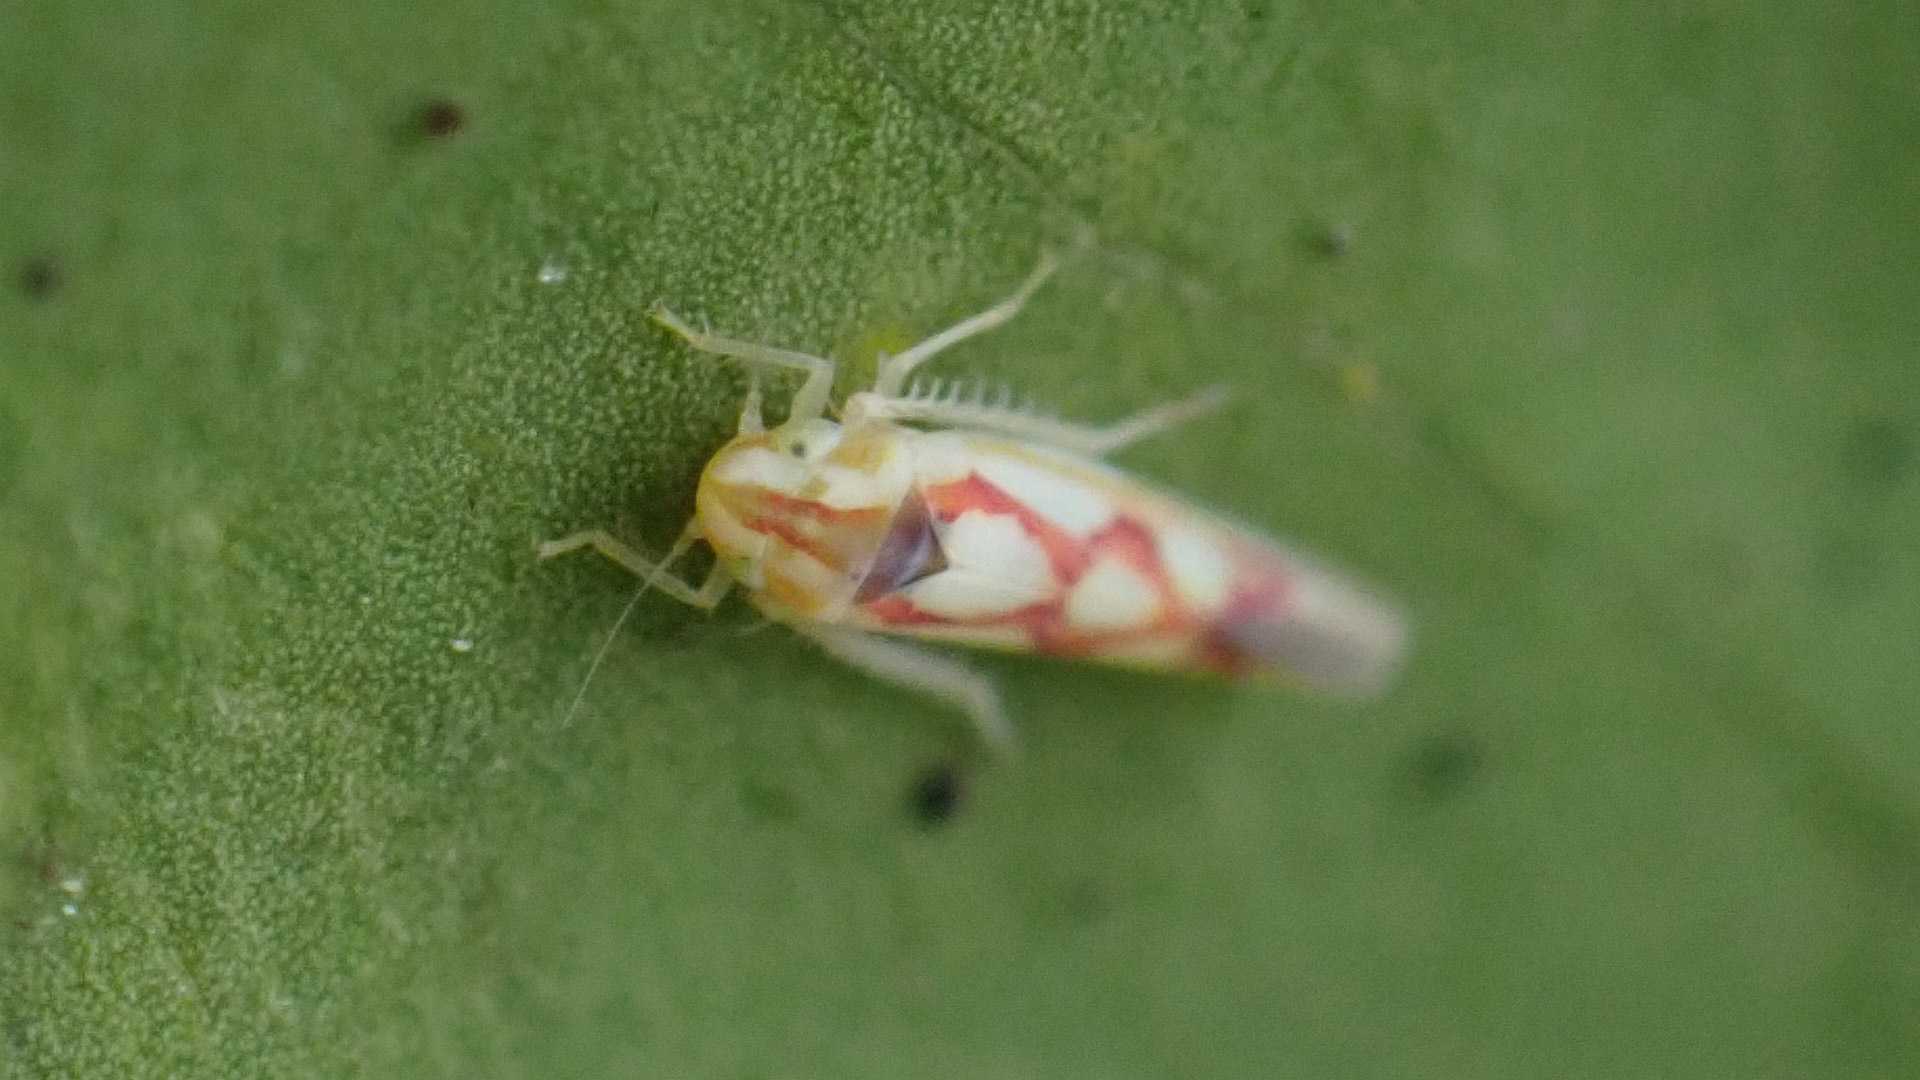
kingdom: Animalia
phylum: Arthropoda
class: Insecta
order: Hemiptera
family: Cicadellidae
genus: Zygina
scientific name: Zygina flammigera
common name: Leafhopper
